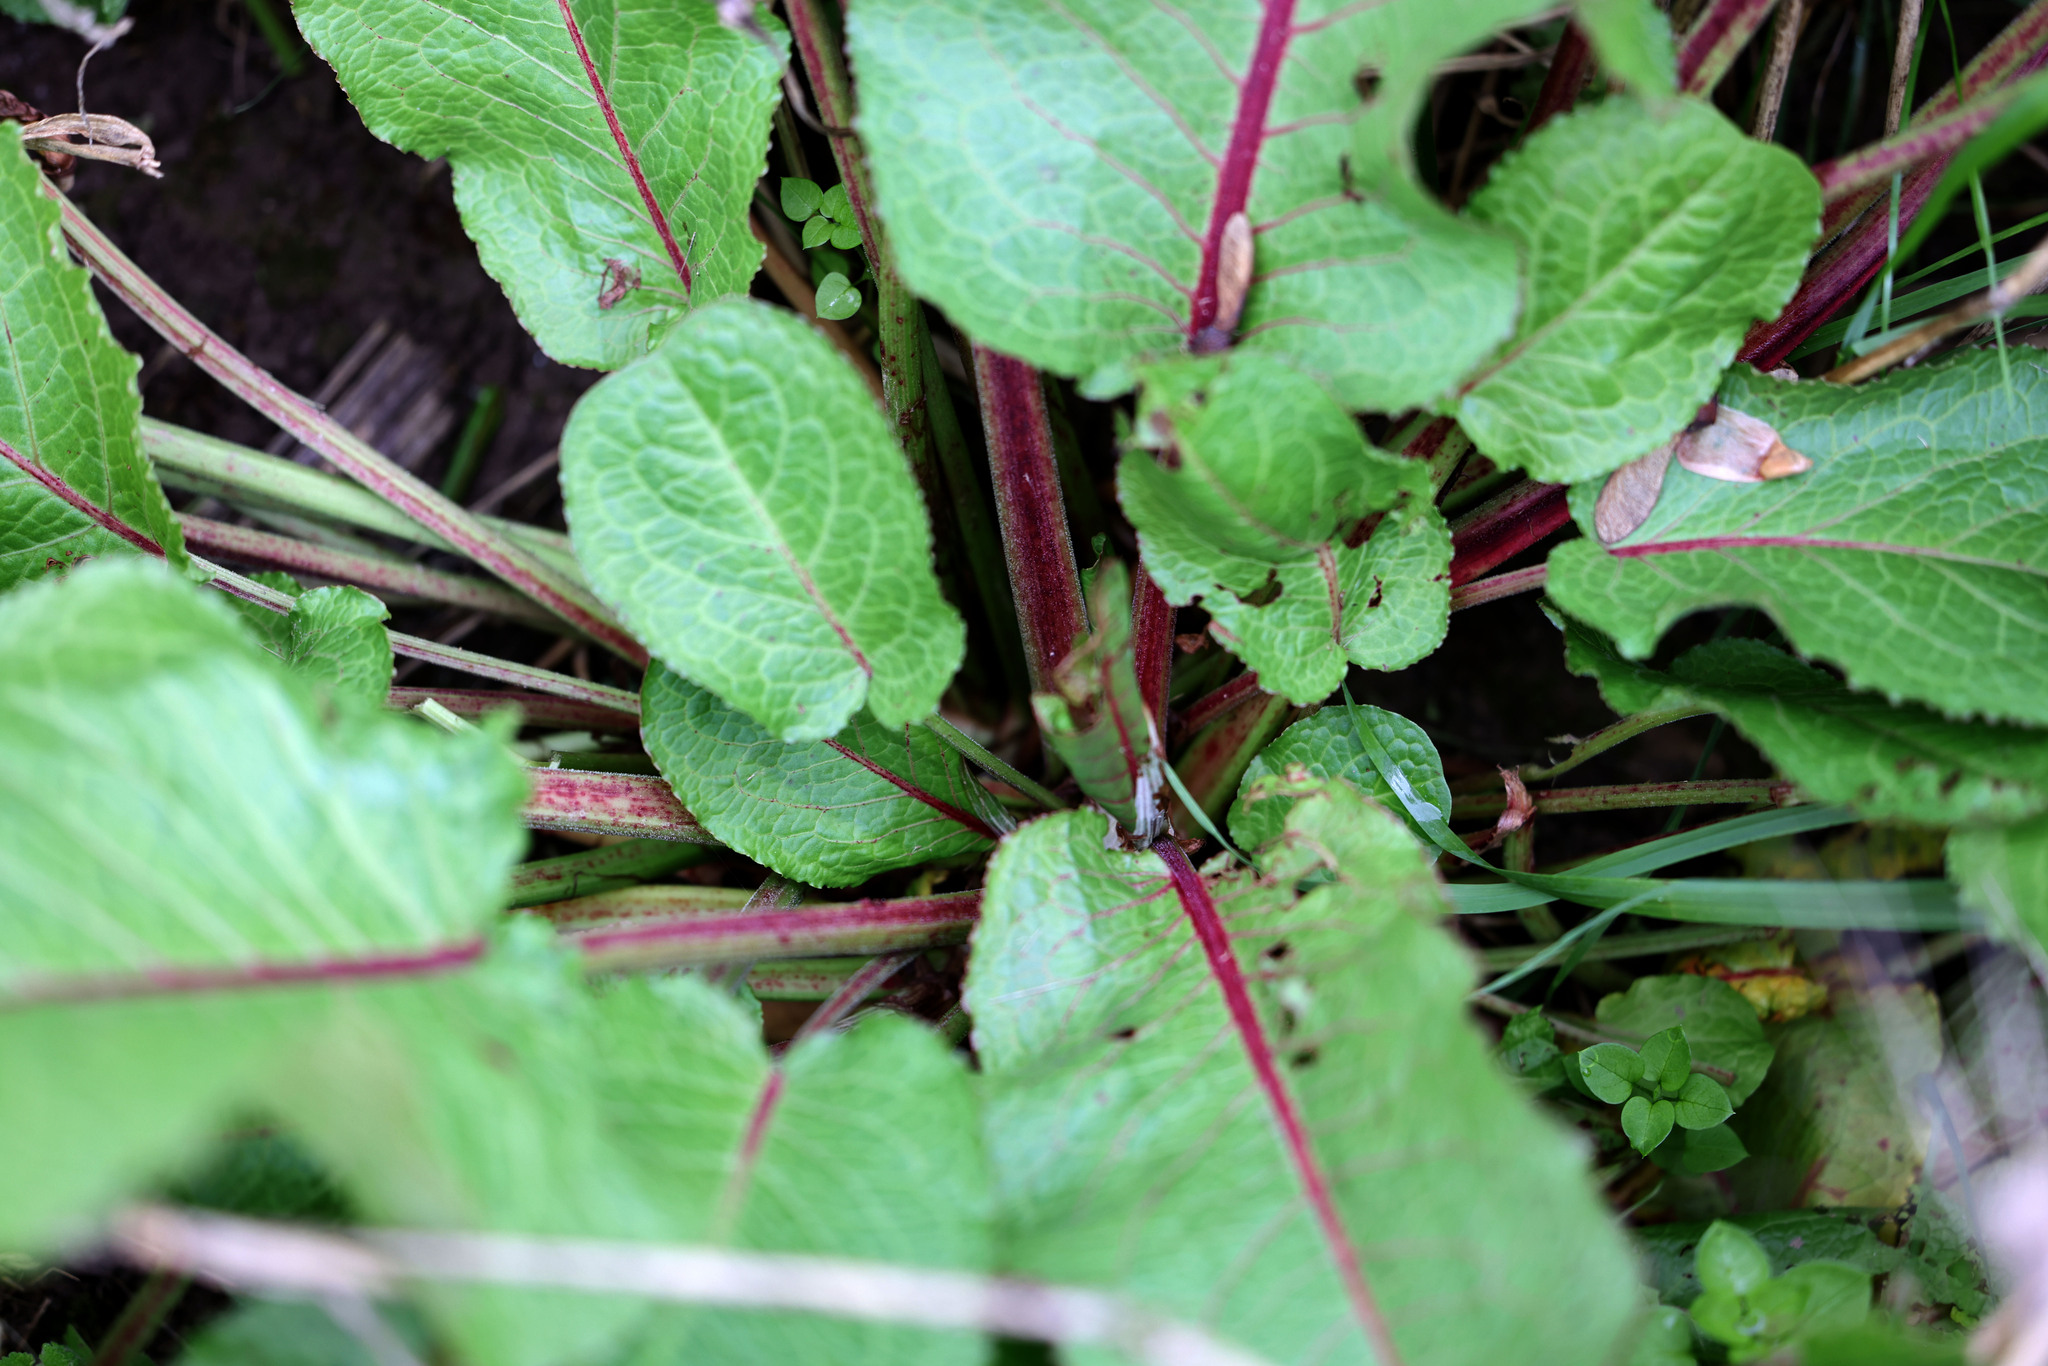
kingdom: Plantae
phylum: Tracheophyta
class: Magnoliopsida
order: Caryophyllales
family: Polygonaceae
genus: Rumex
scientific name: Rumex obtusifolius
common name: Bitter dock
